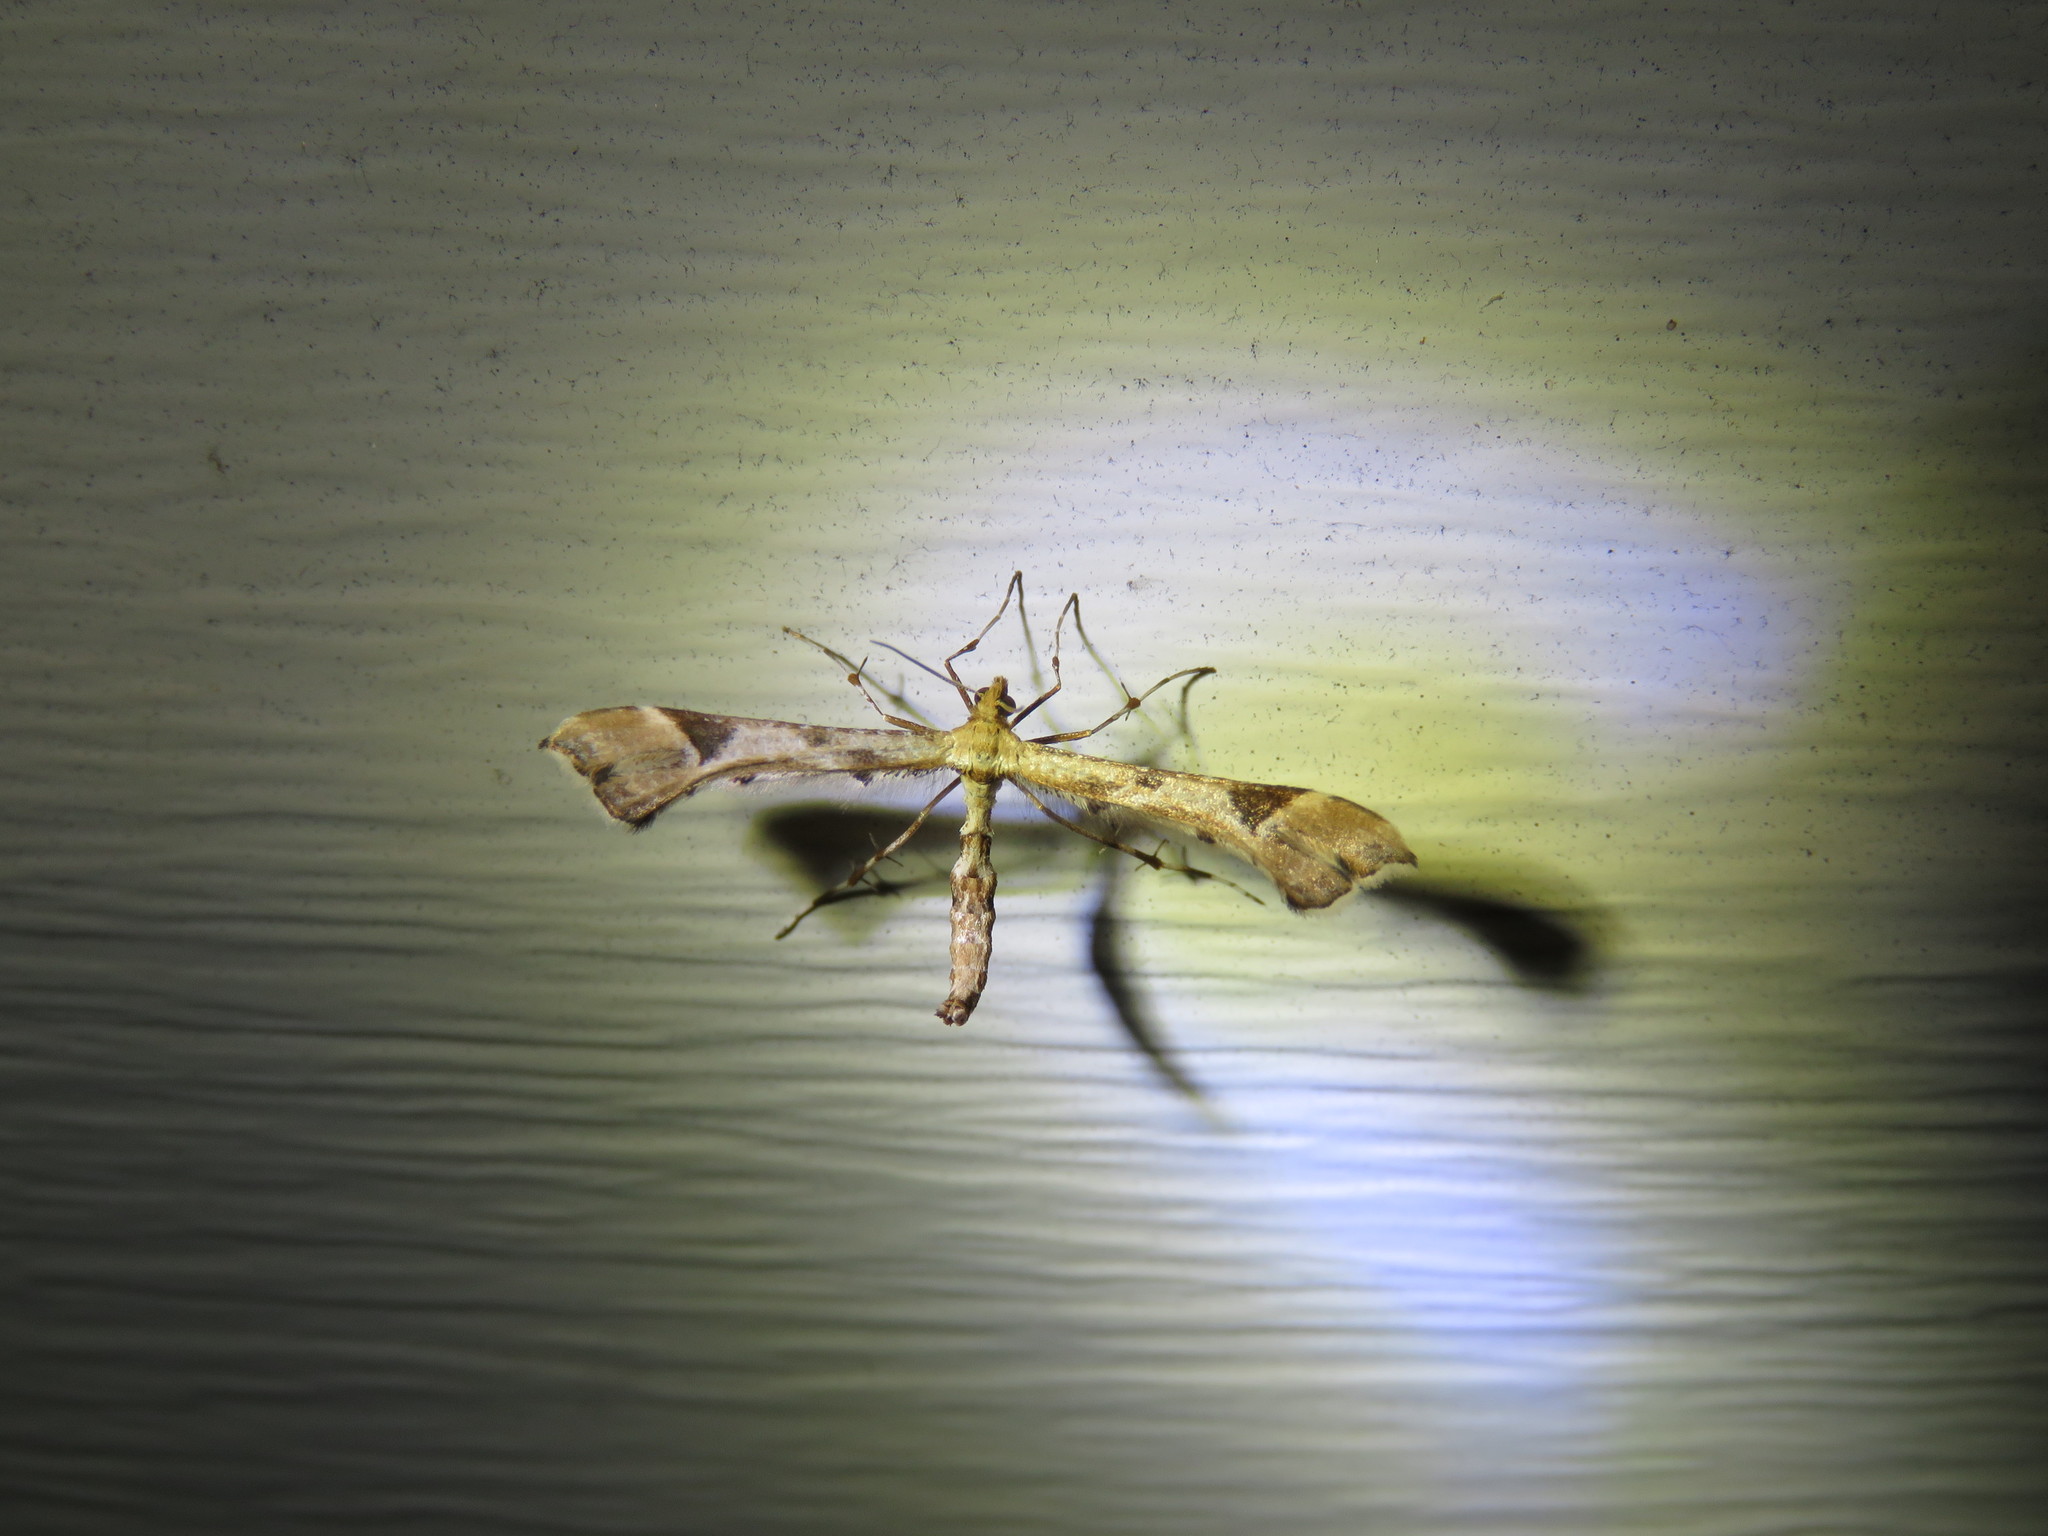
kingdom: Animalia
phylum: Arthropoda
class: Insecta
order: Lepidoptera
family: Pterophoridae
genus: Platyptilia
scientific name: Platyptilia carduidactylus
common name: Artichoke plume moth
